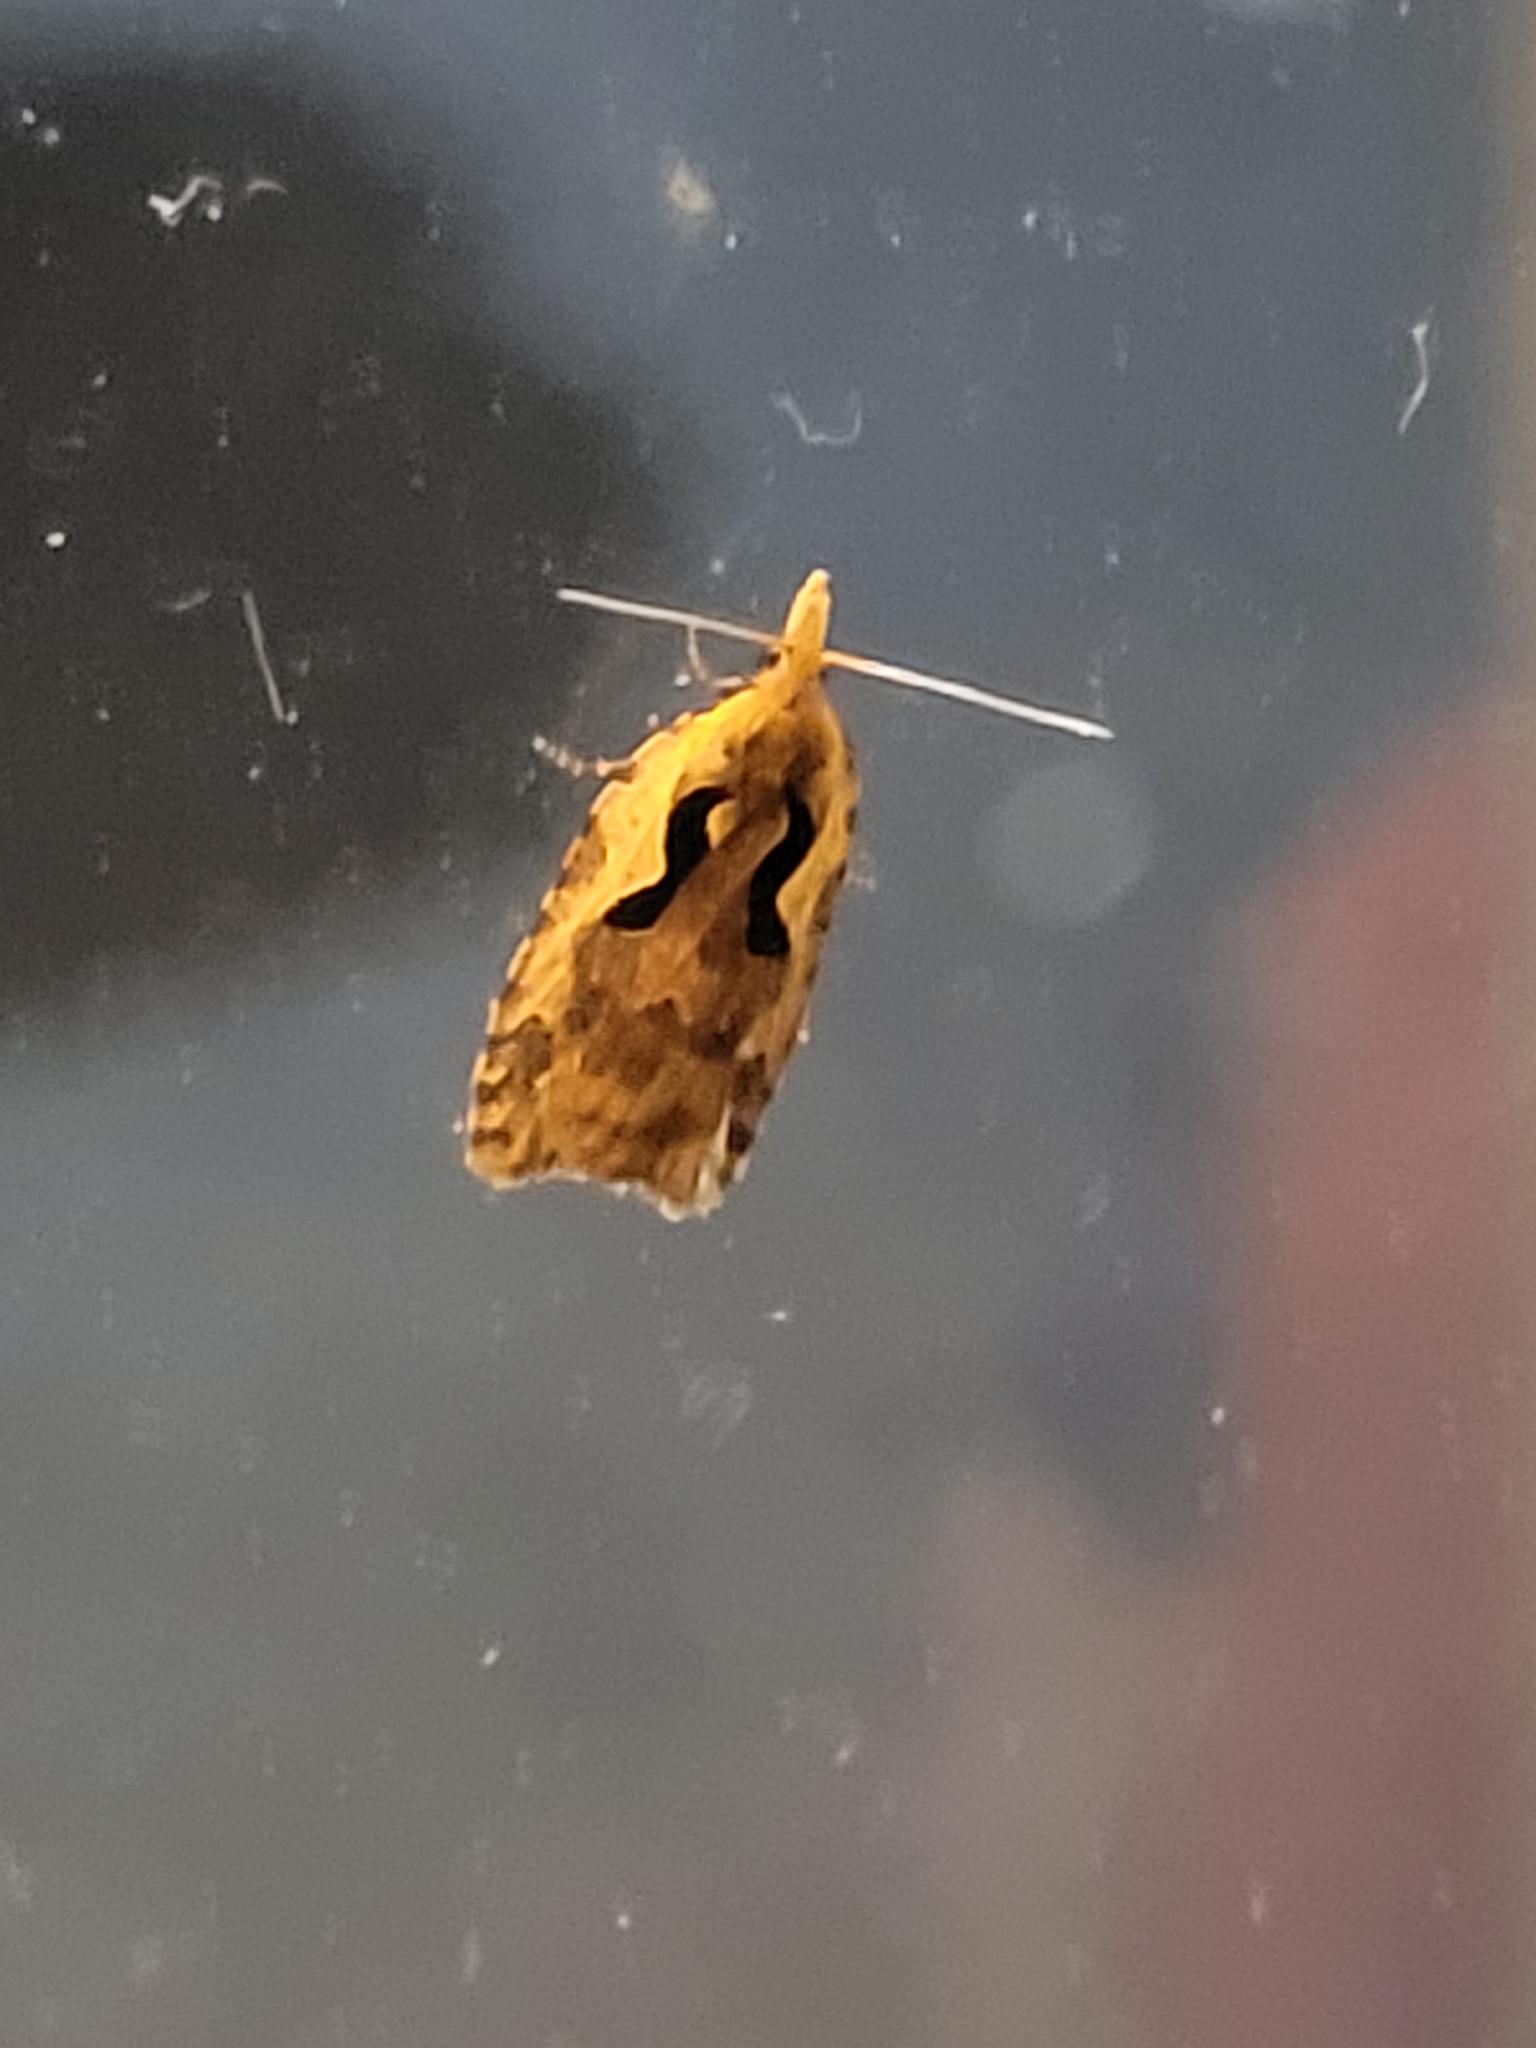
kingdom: Animalia
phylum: Arthropoda
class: Insecta
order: Lepidoptera
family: Tortricidae
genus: Cnephasia
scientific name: Cnephasia jactatana
